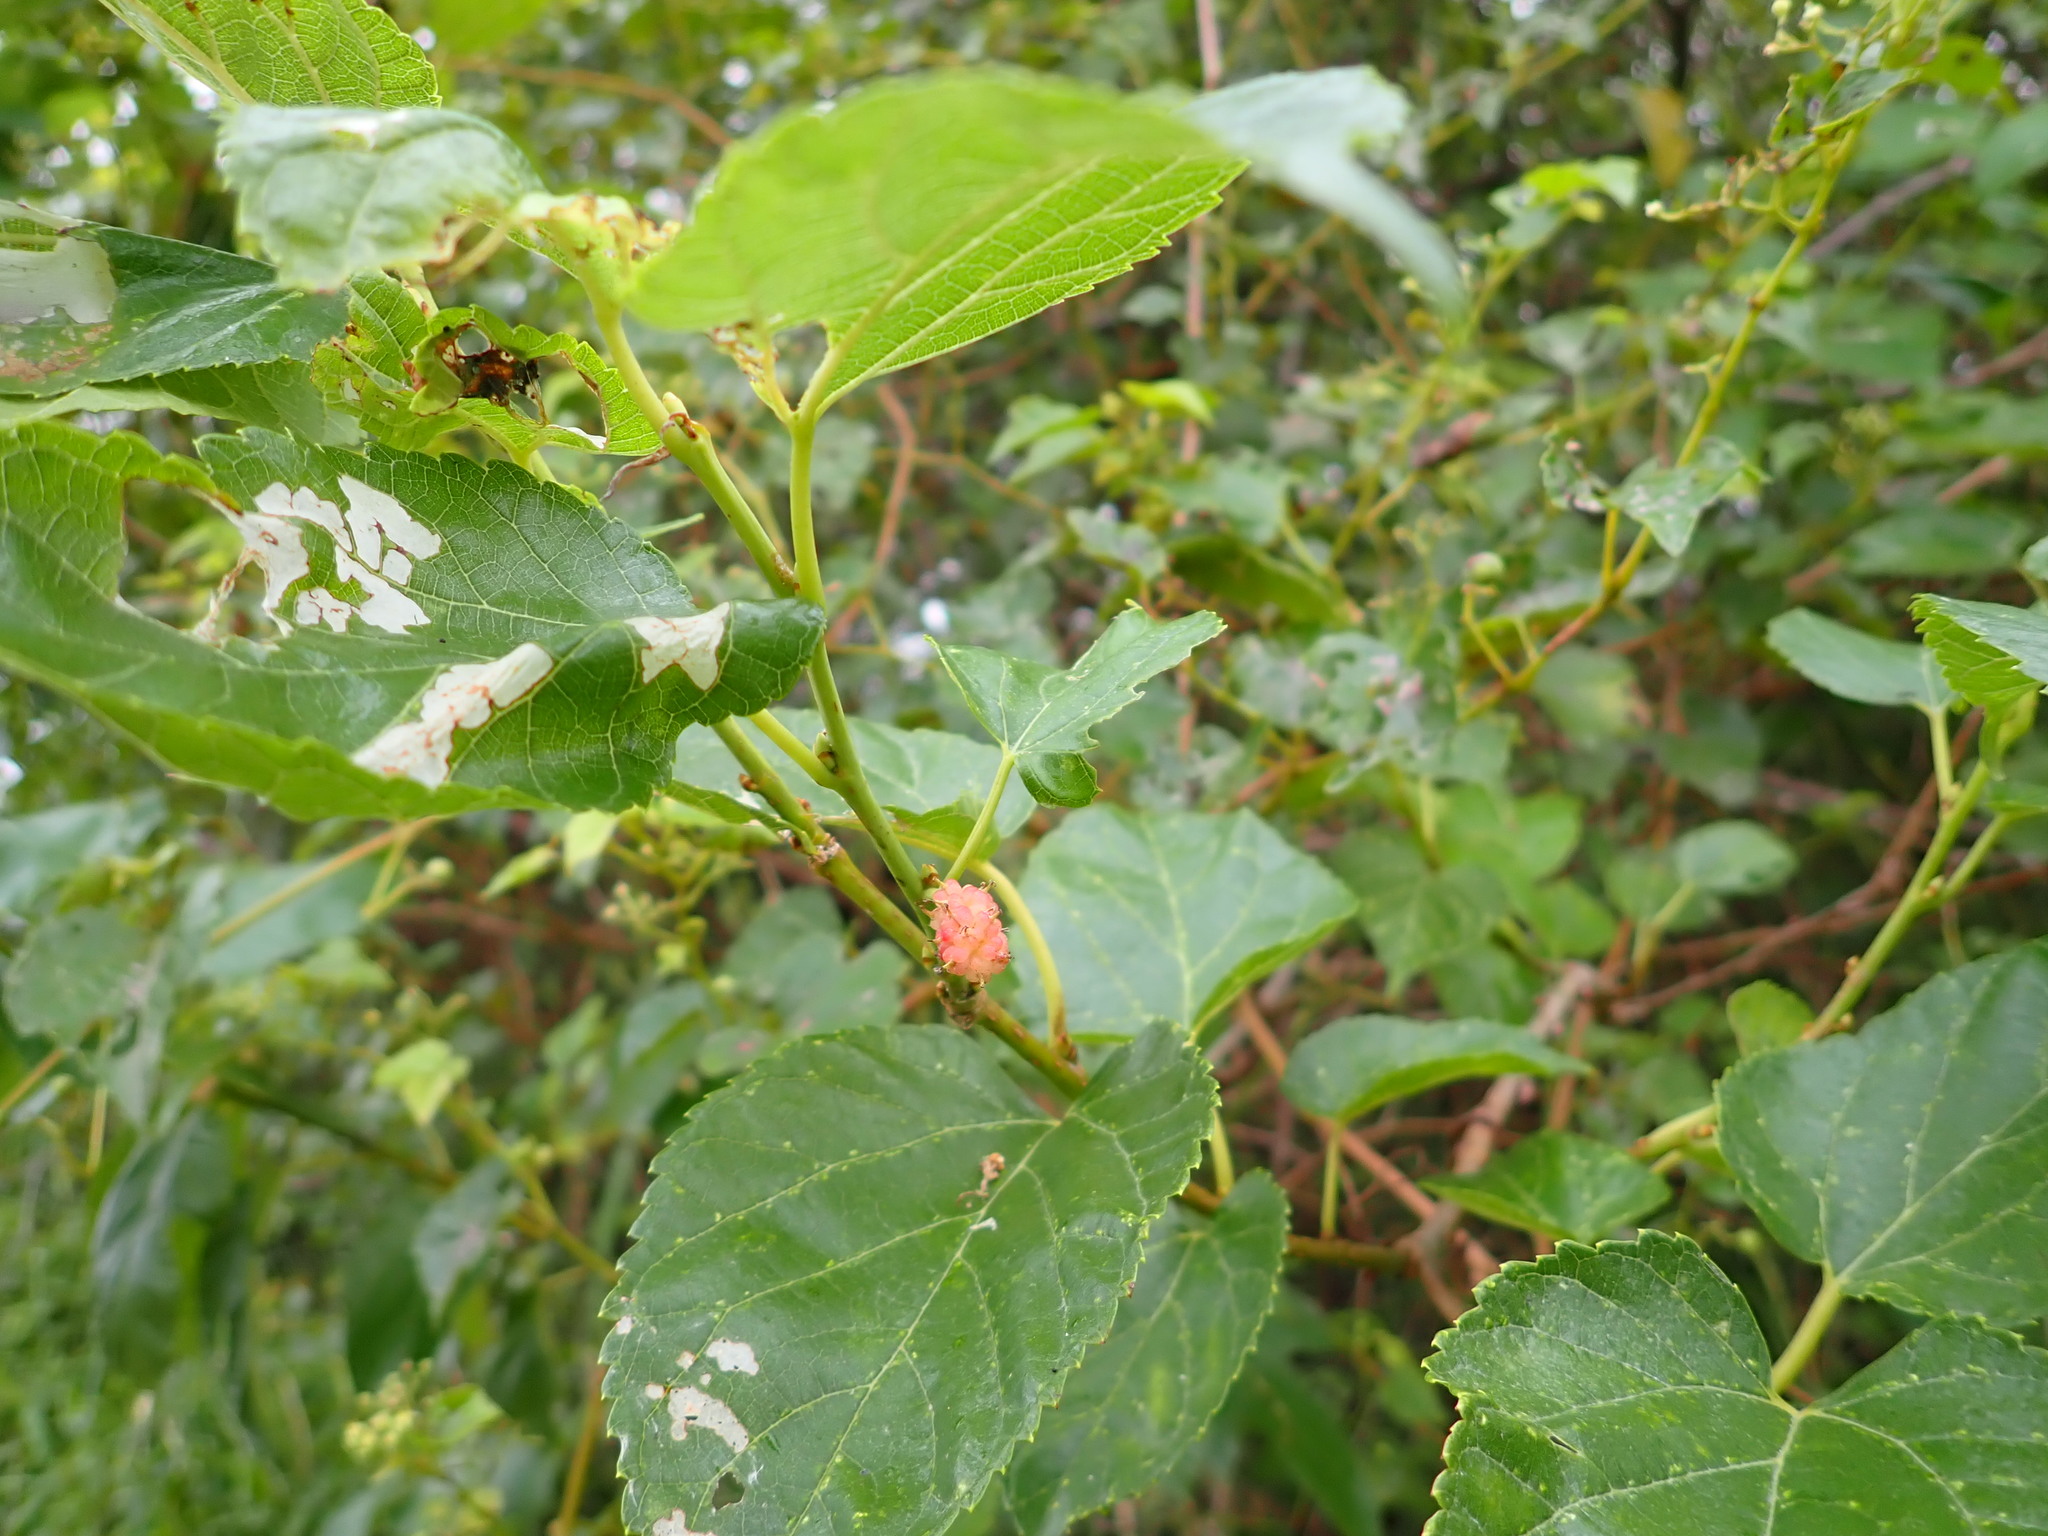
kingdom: Plantae
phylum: Tracheophyta
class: Magnoliopsida
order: Rosales
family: Moraceae
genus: Morus
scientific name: Morus indica
